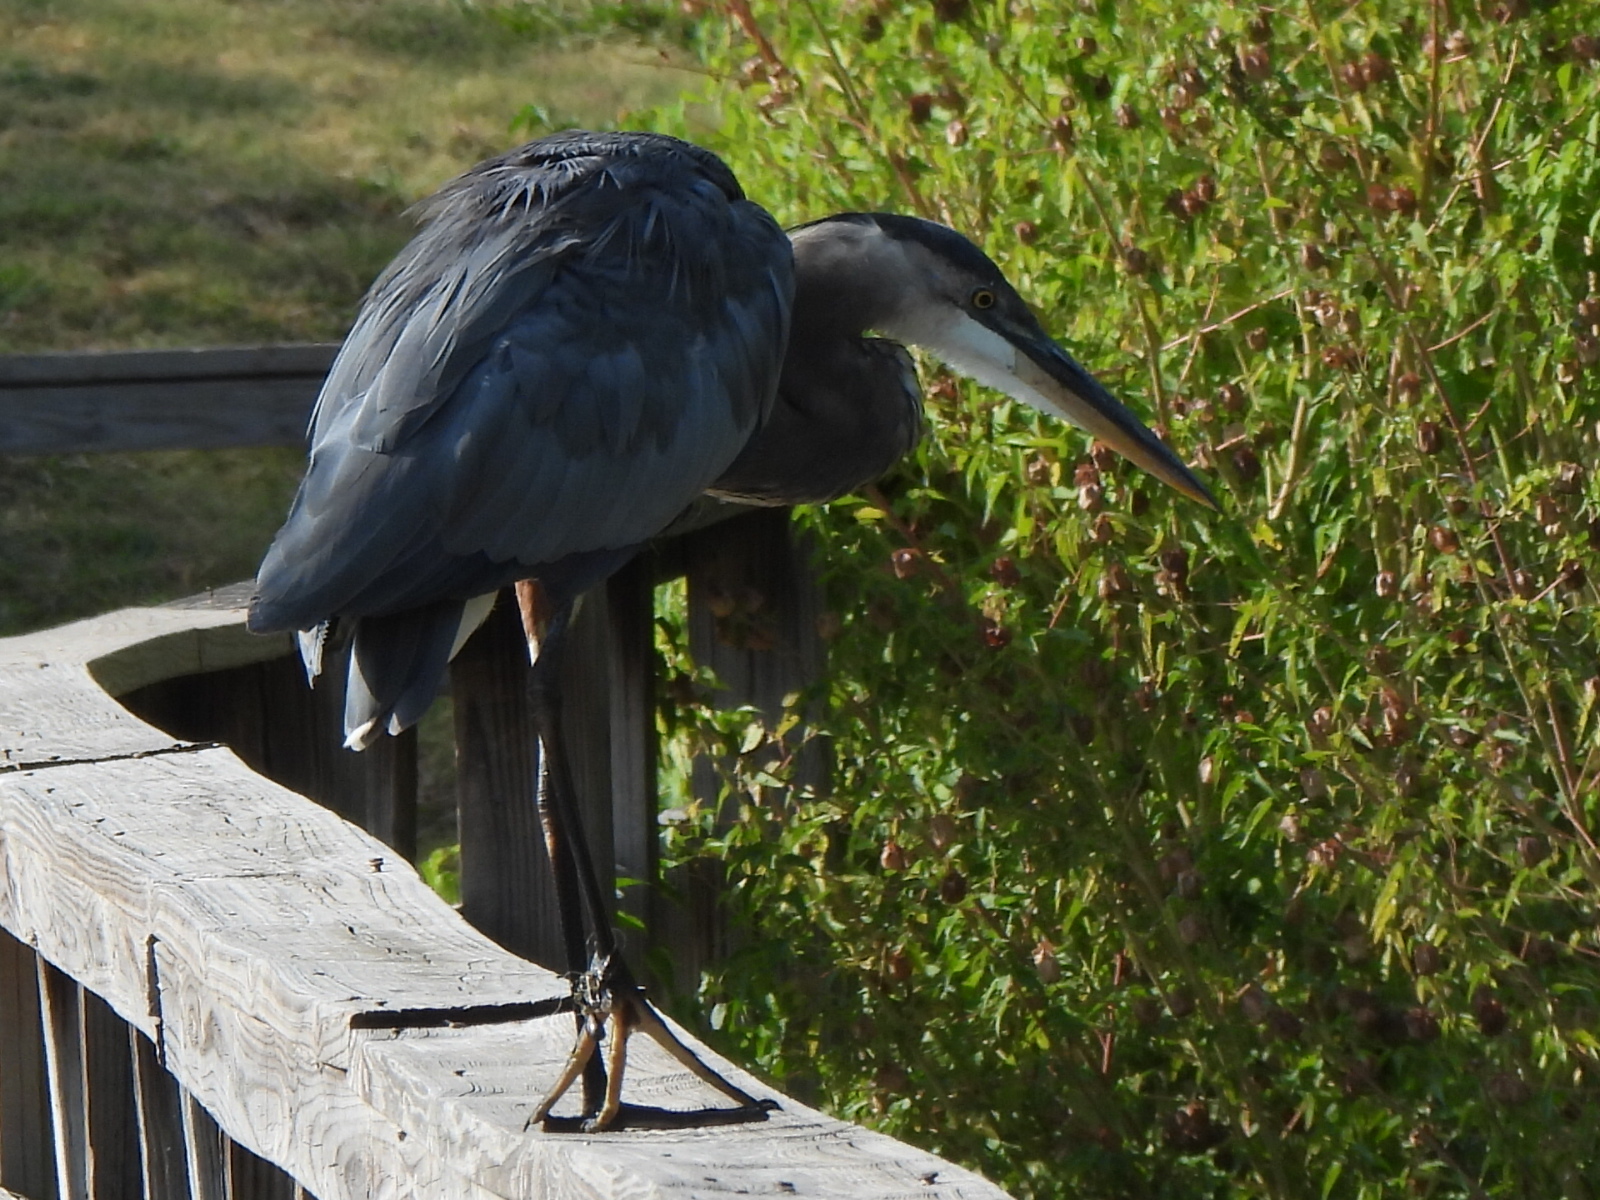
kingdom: Animalia
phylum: Chordata
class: Aves
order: Pelecaniformes
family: Ardeidae
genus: Ardea
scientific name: Ardea herodias
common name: Great blue heron
